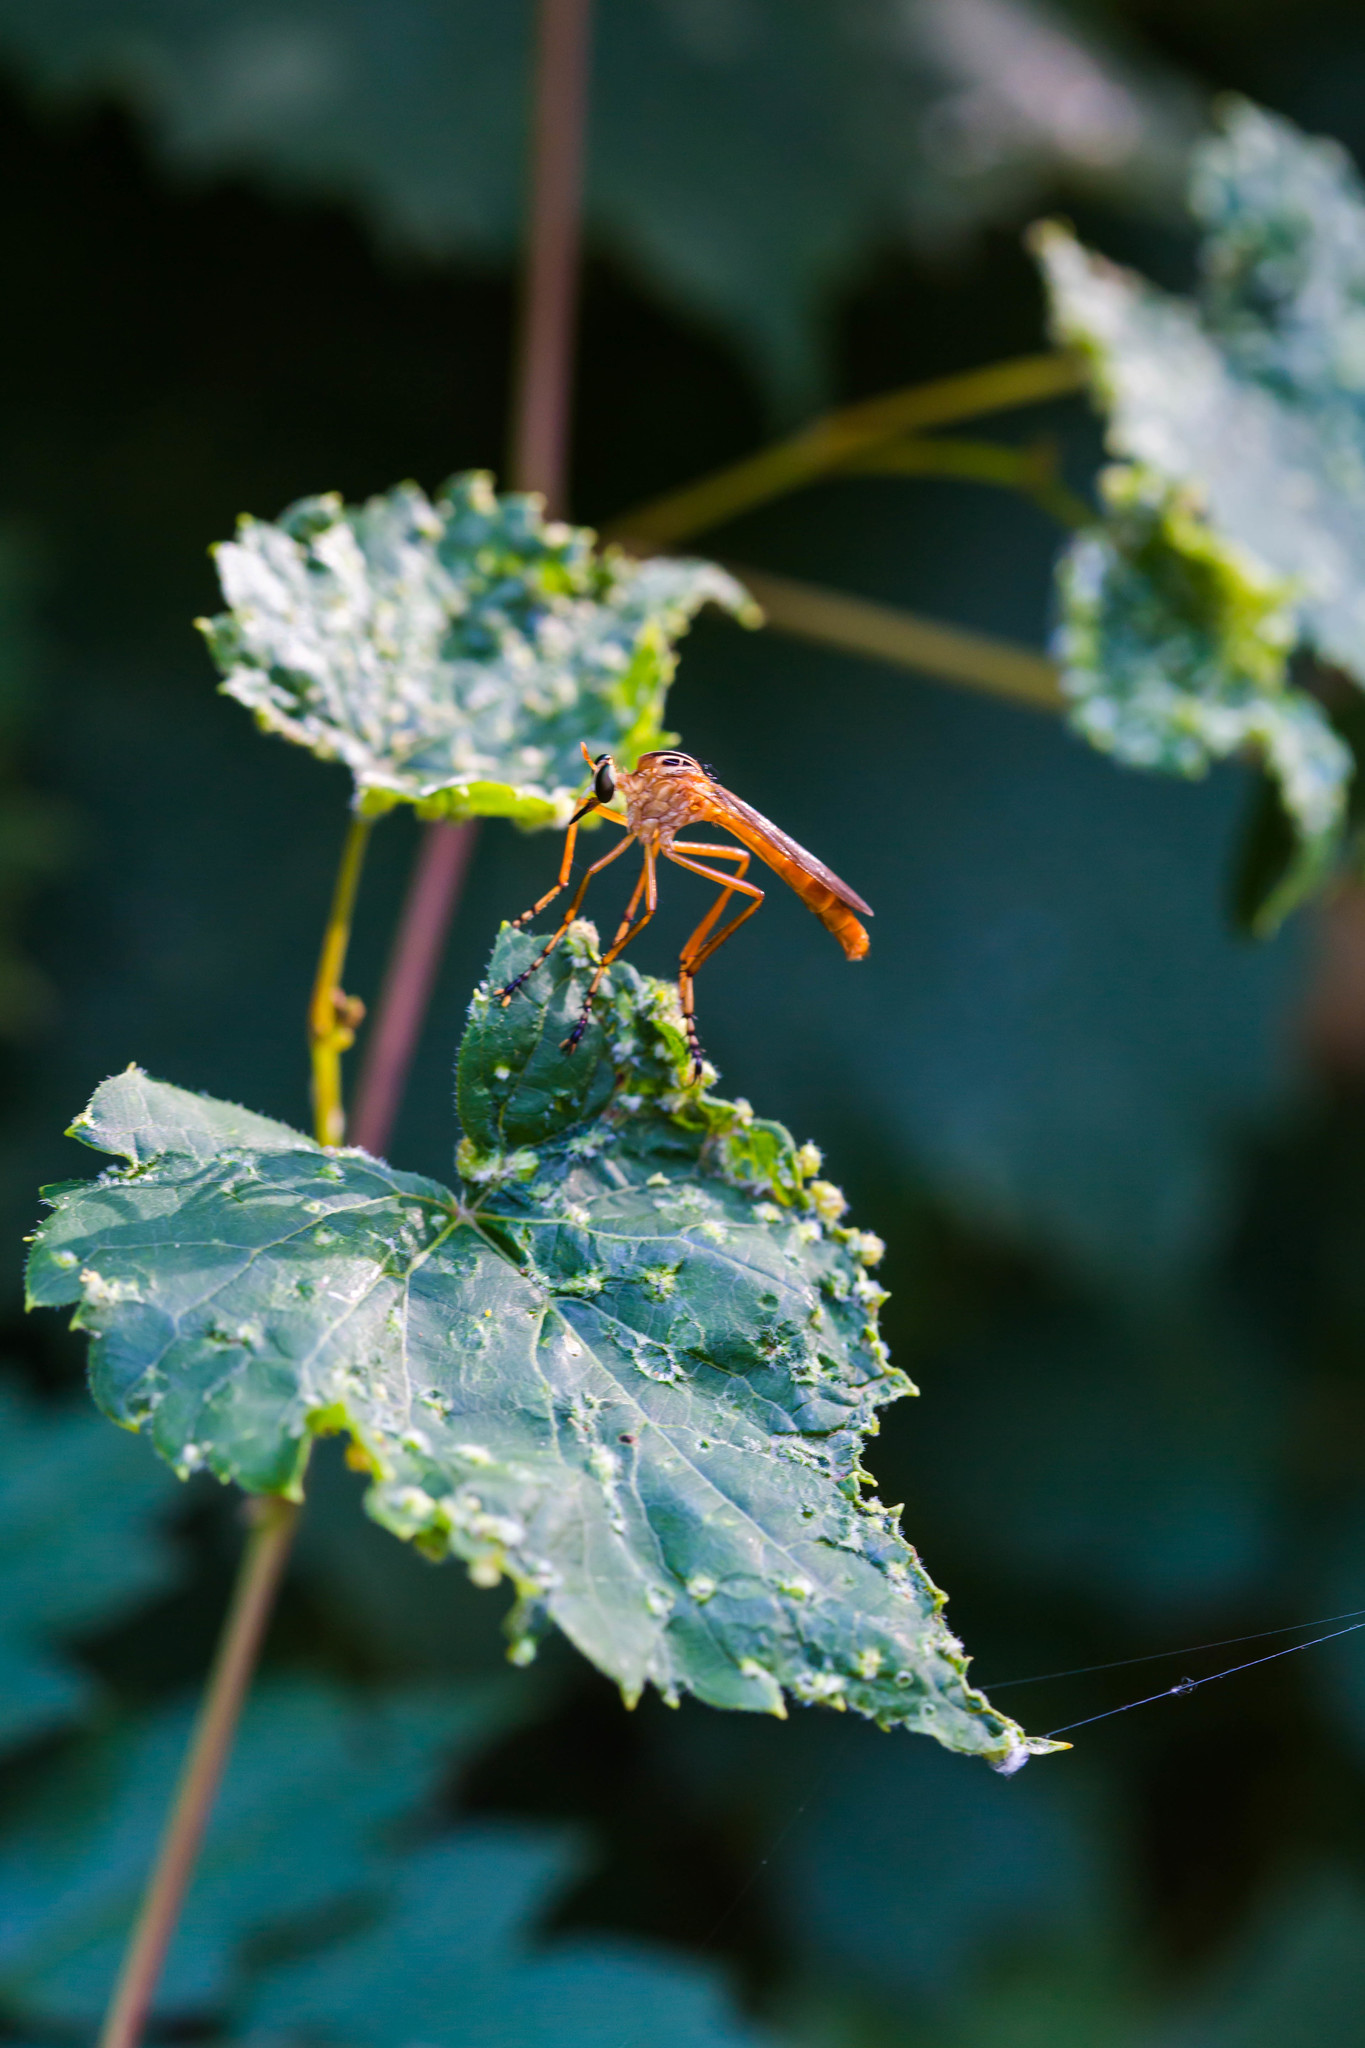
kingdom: Animalia
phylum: Arthropoda
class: Insecta
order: Diptera
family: Asilidae
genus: Diogmites
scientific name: Diogmites neoternatus
